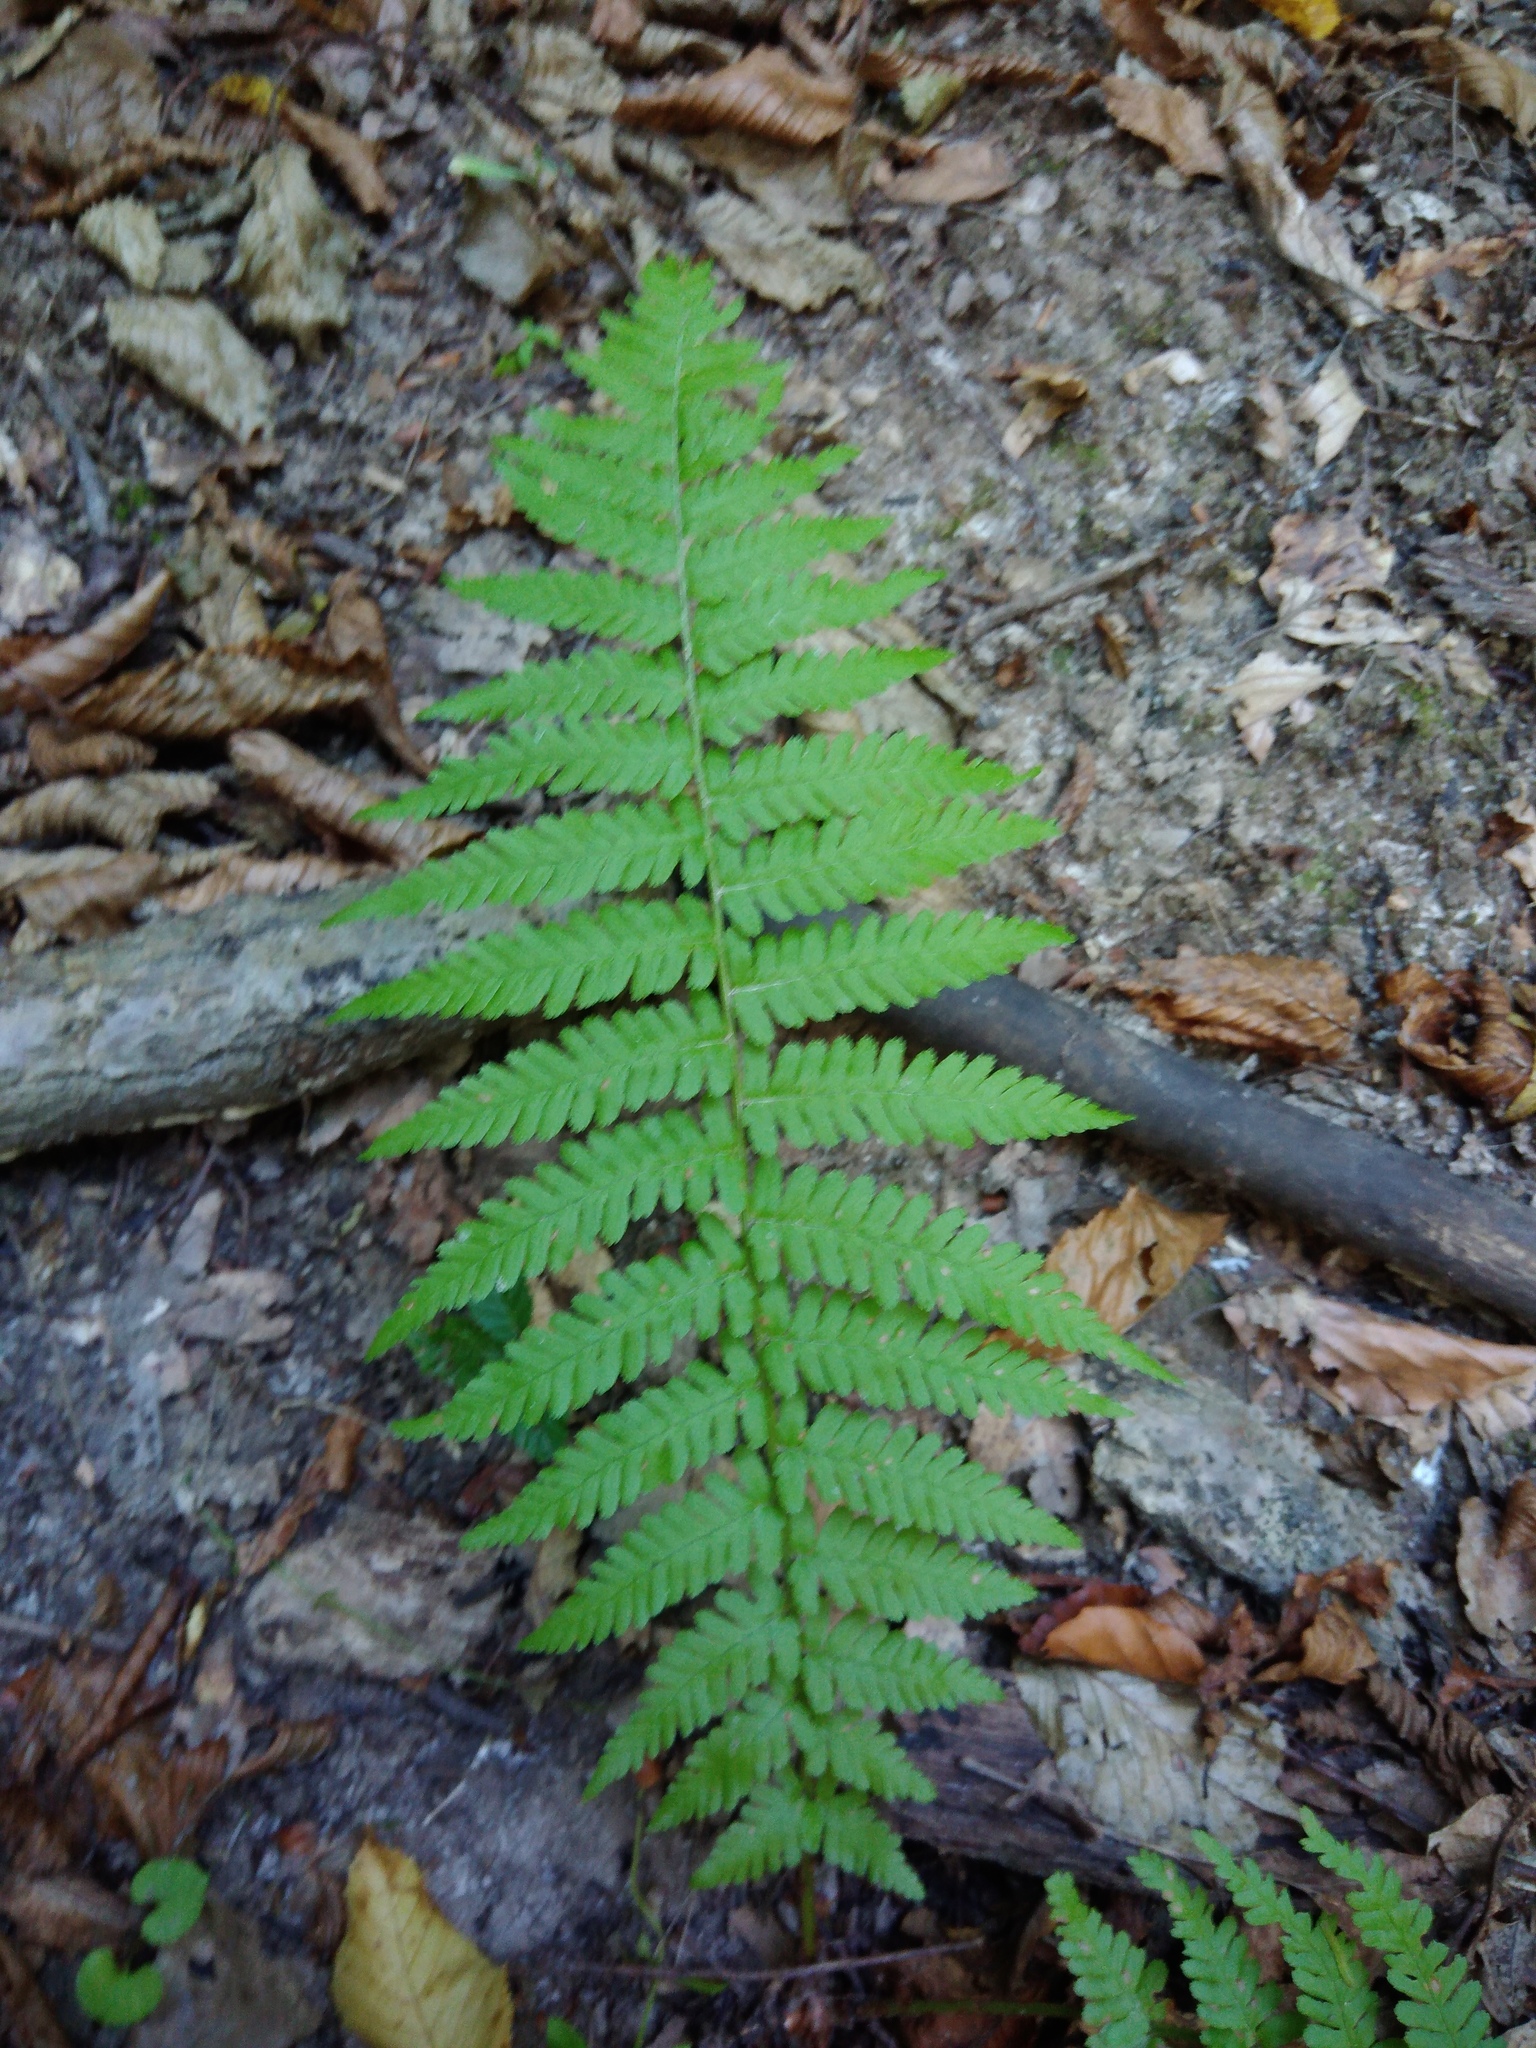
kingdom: Plantae
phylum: Tracheophyta
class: Polypodiopsida
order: Polypodiales
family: Dryopteridaceae
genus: Dryopteris
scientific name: Dryopteris filix-mas
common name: Male fern
